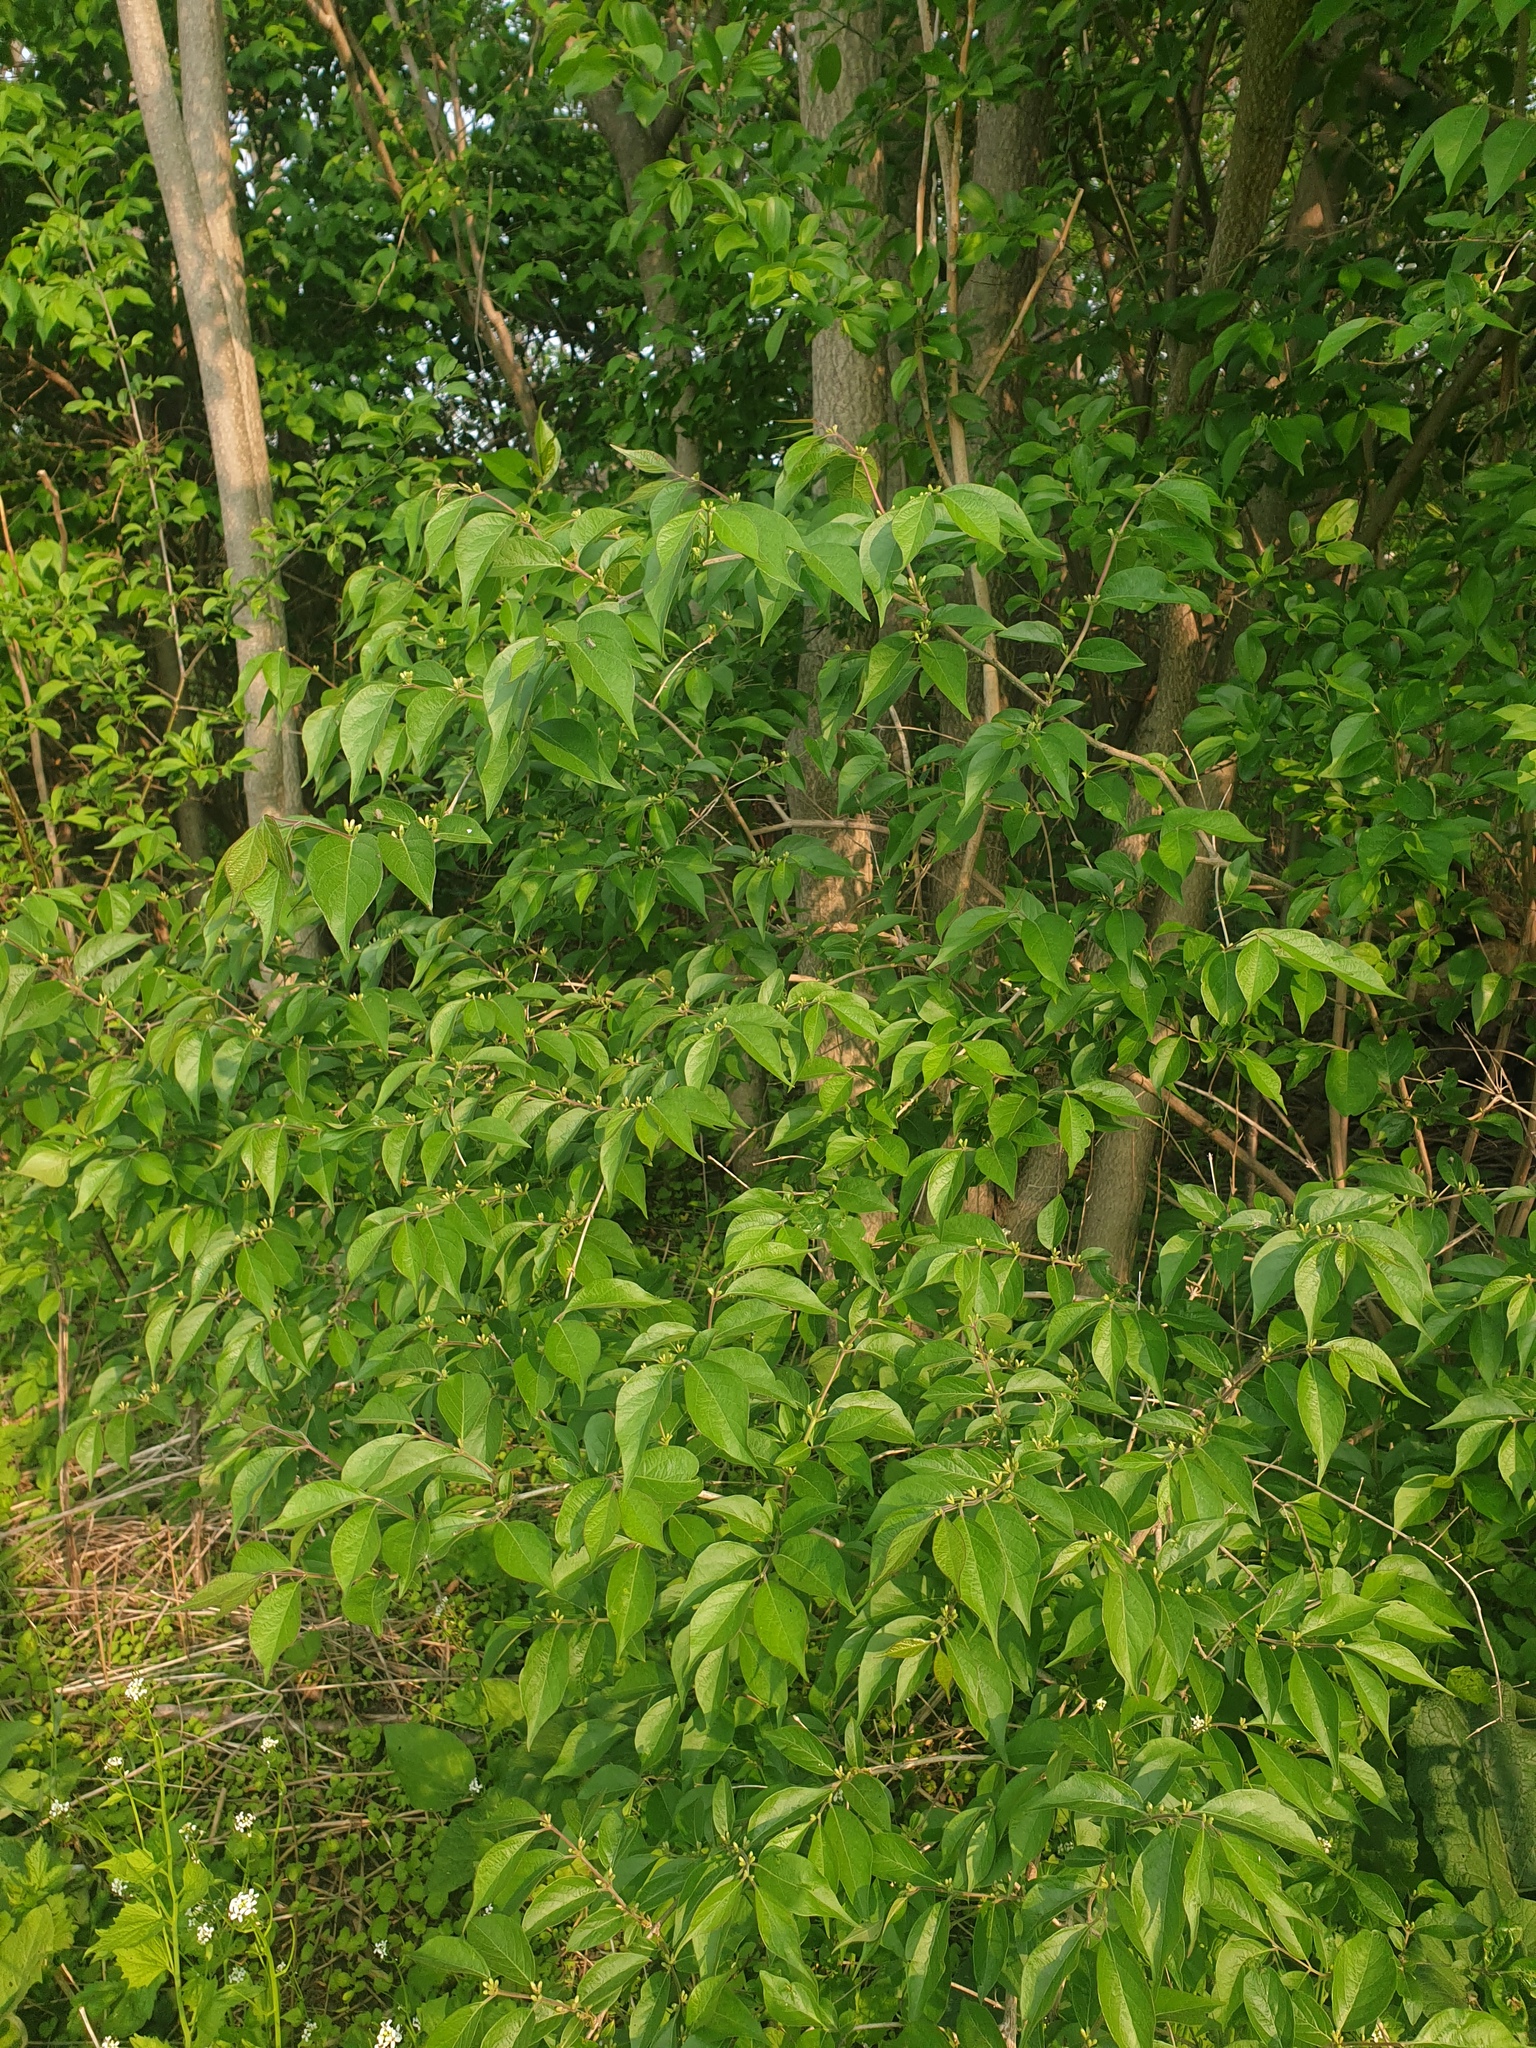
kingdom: Plantae
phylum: Tracheophyta
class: Magnoliopsida
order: Dipsacales
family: Caprifoliaceae
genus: Lonicera
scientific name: Lonicera maackii
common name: Amur honeysuckle
